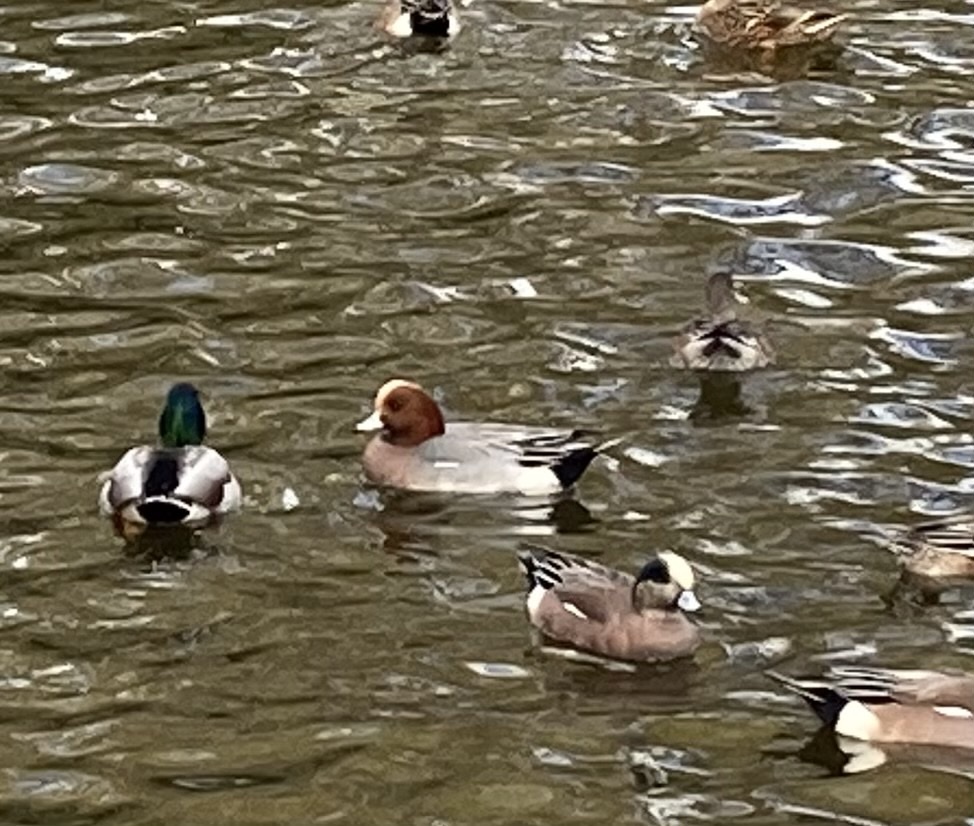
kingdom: Animalia
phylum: Chordata
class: Aves
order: Anseriformes
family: Anatidae
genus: Mareca
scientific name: Mareca penelope
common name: Eurasian wigeon
